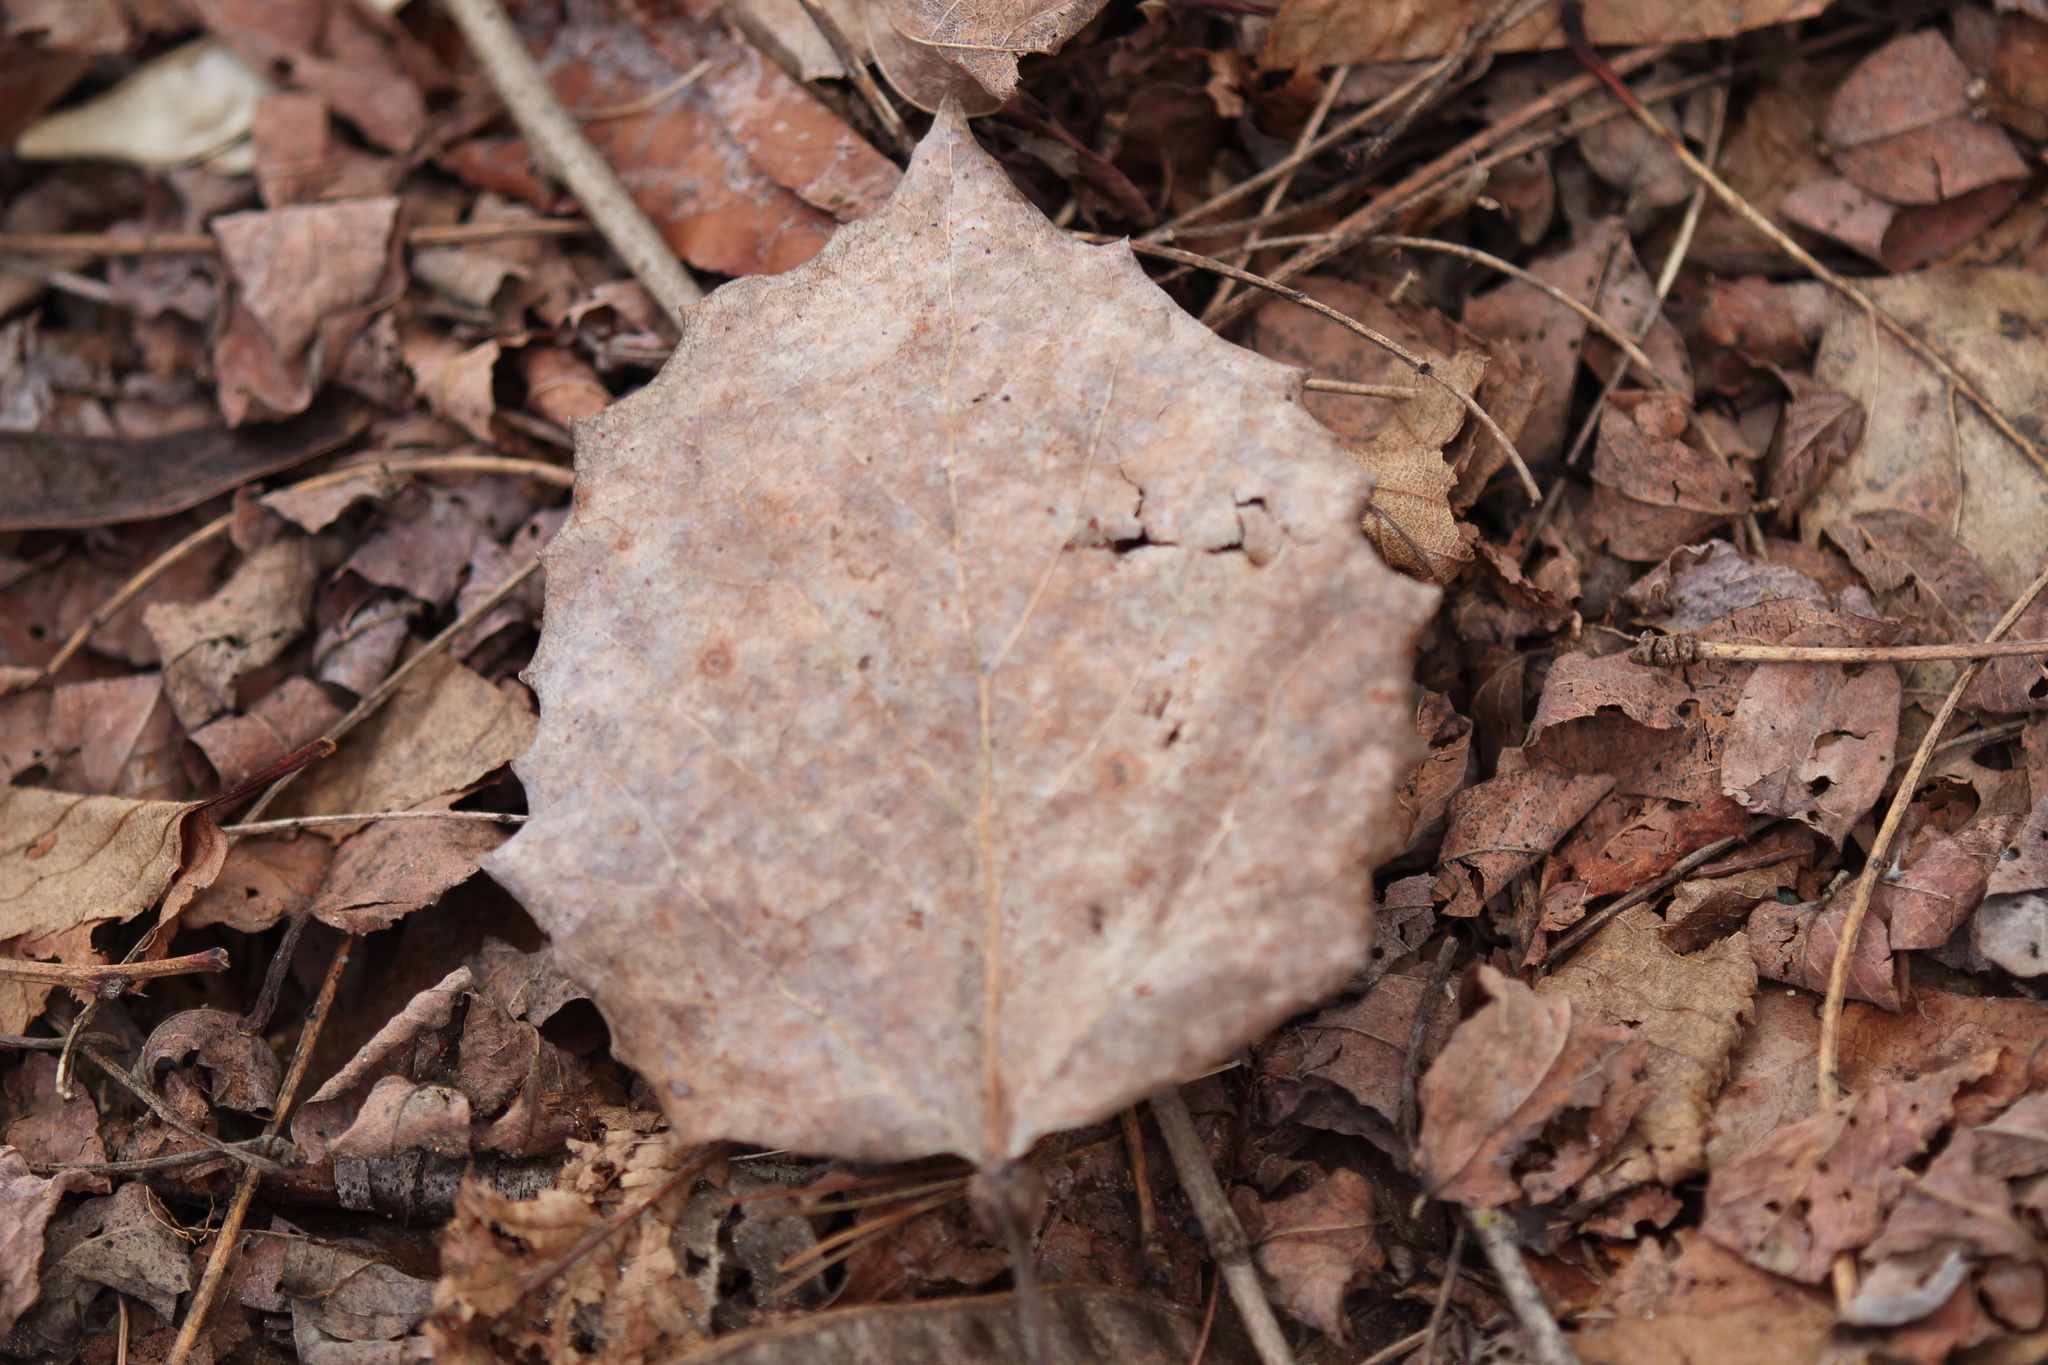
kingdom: Plantae
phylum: Tracheophyta
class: Magnoliopsida
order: Malpighiales
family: Salicaceae
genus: Populus
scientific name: Populus grandidentata
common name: Bigtooth aspen
